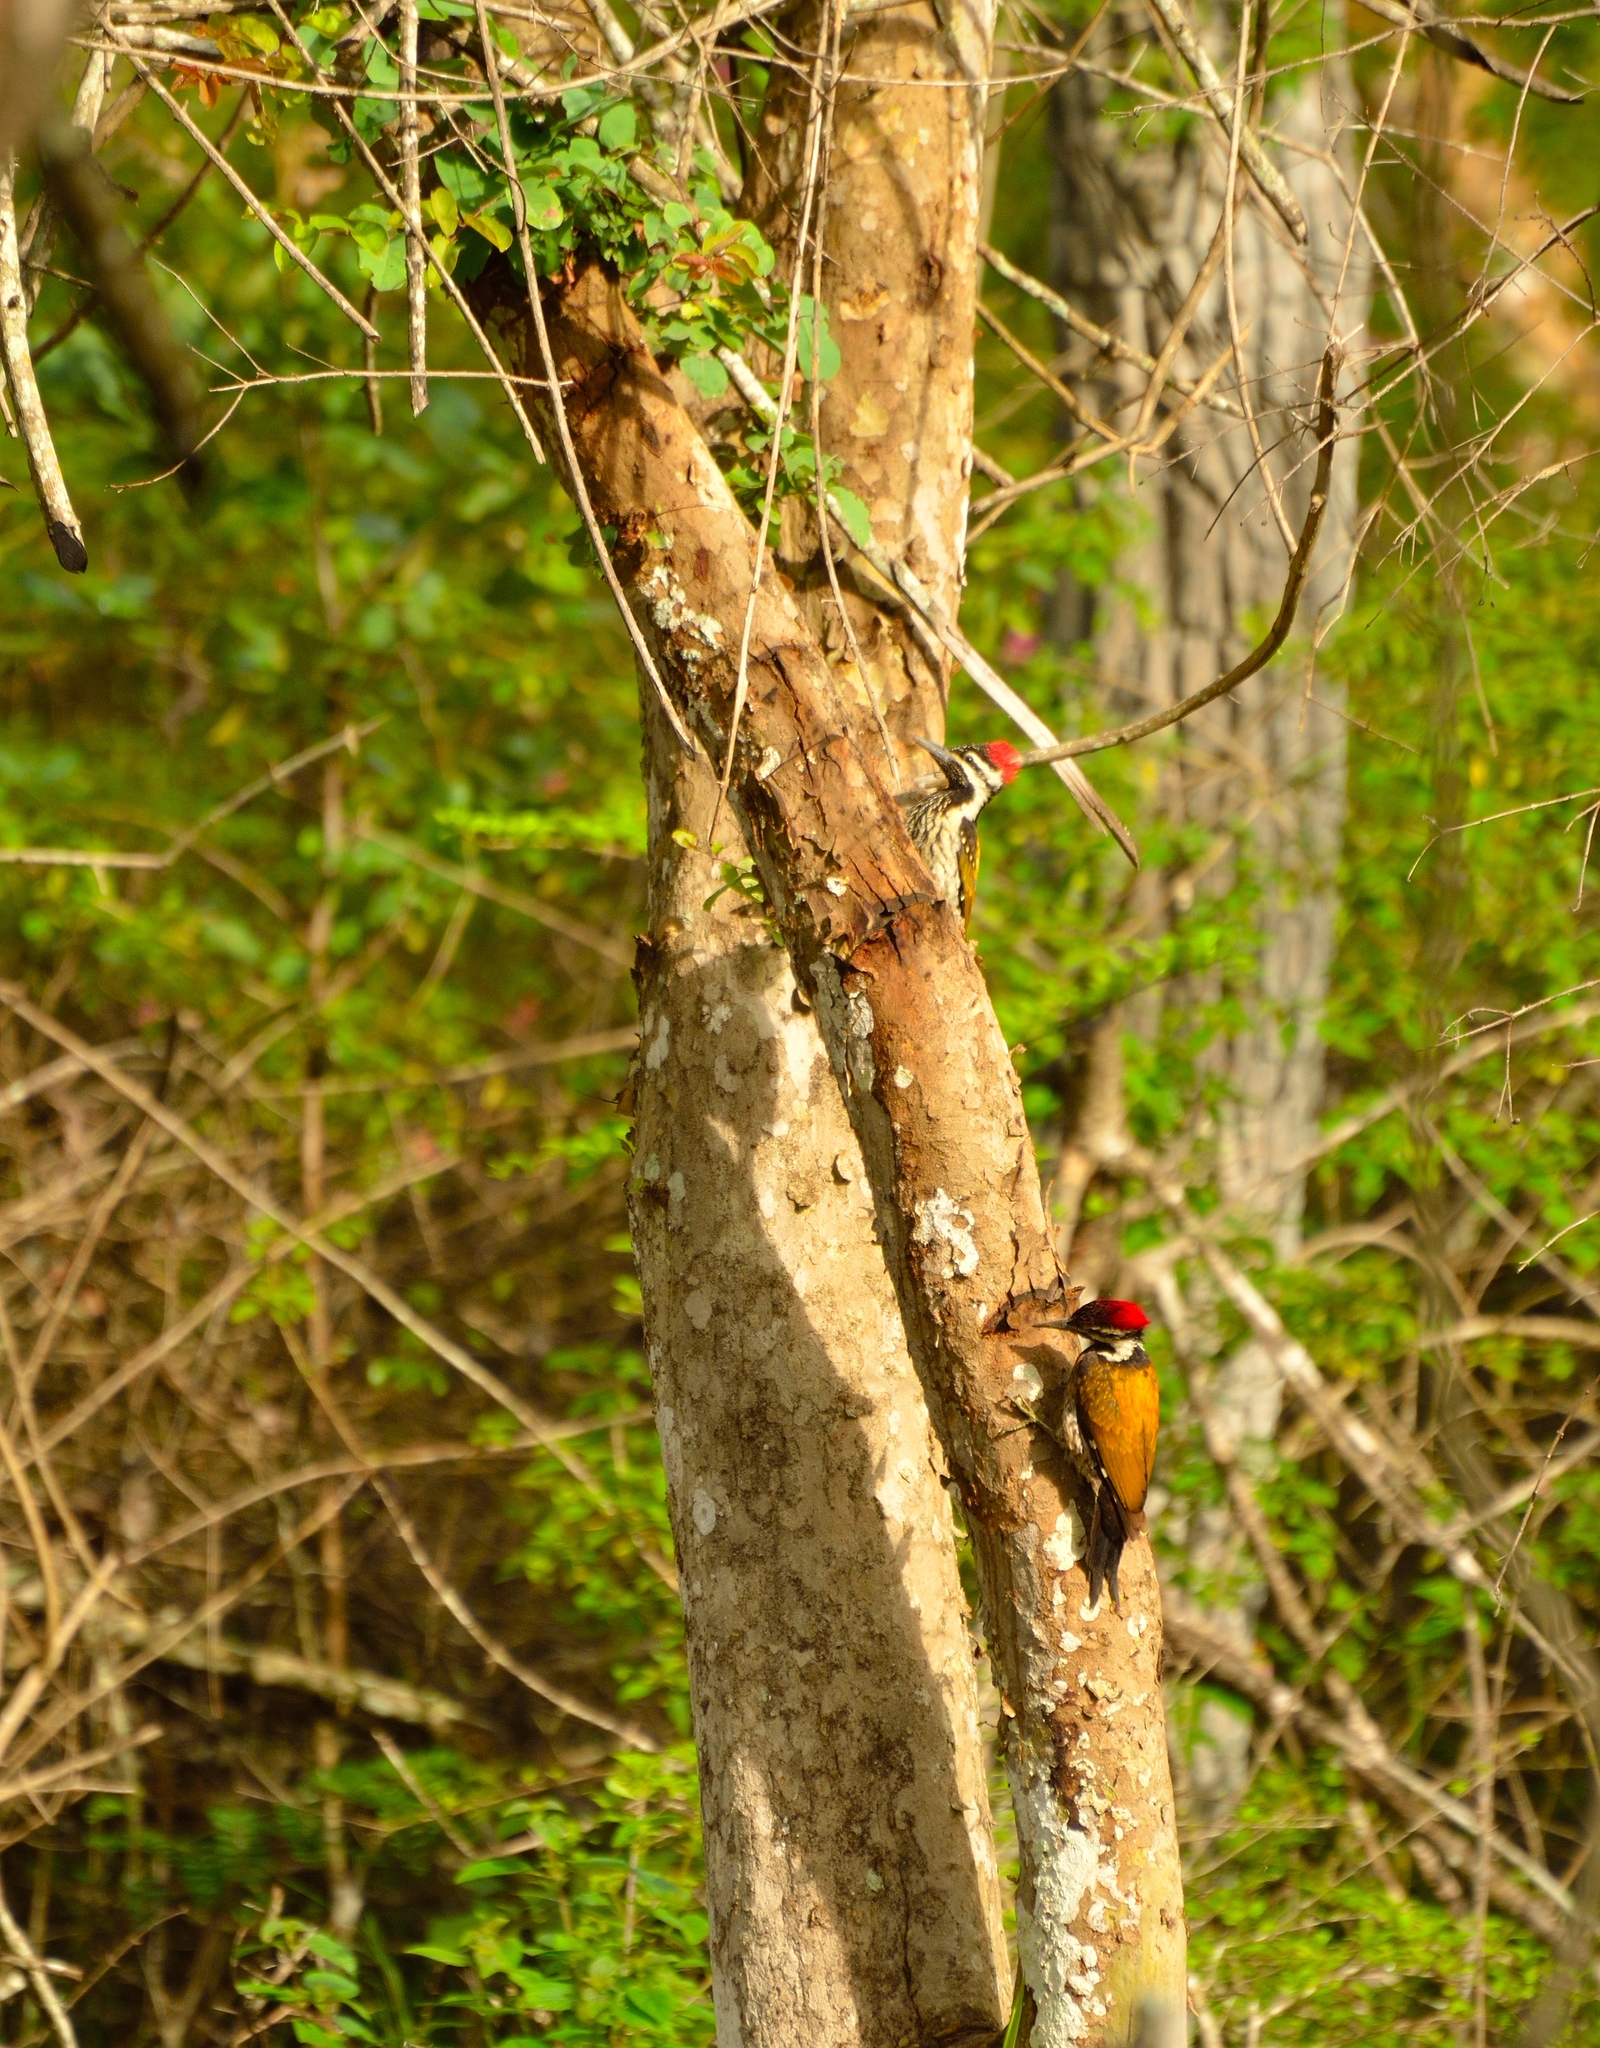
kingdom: Animalia
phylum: Chordata
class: Aves
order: Piciformes
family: Picidae
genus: Dinopium
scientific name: Dinopium benghalense
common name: Black-rumped flameback
